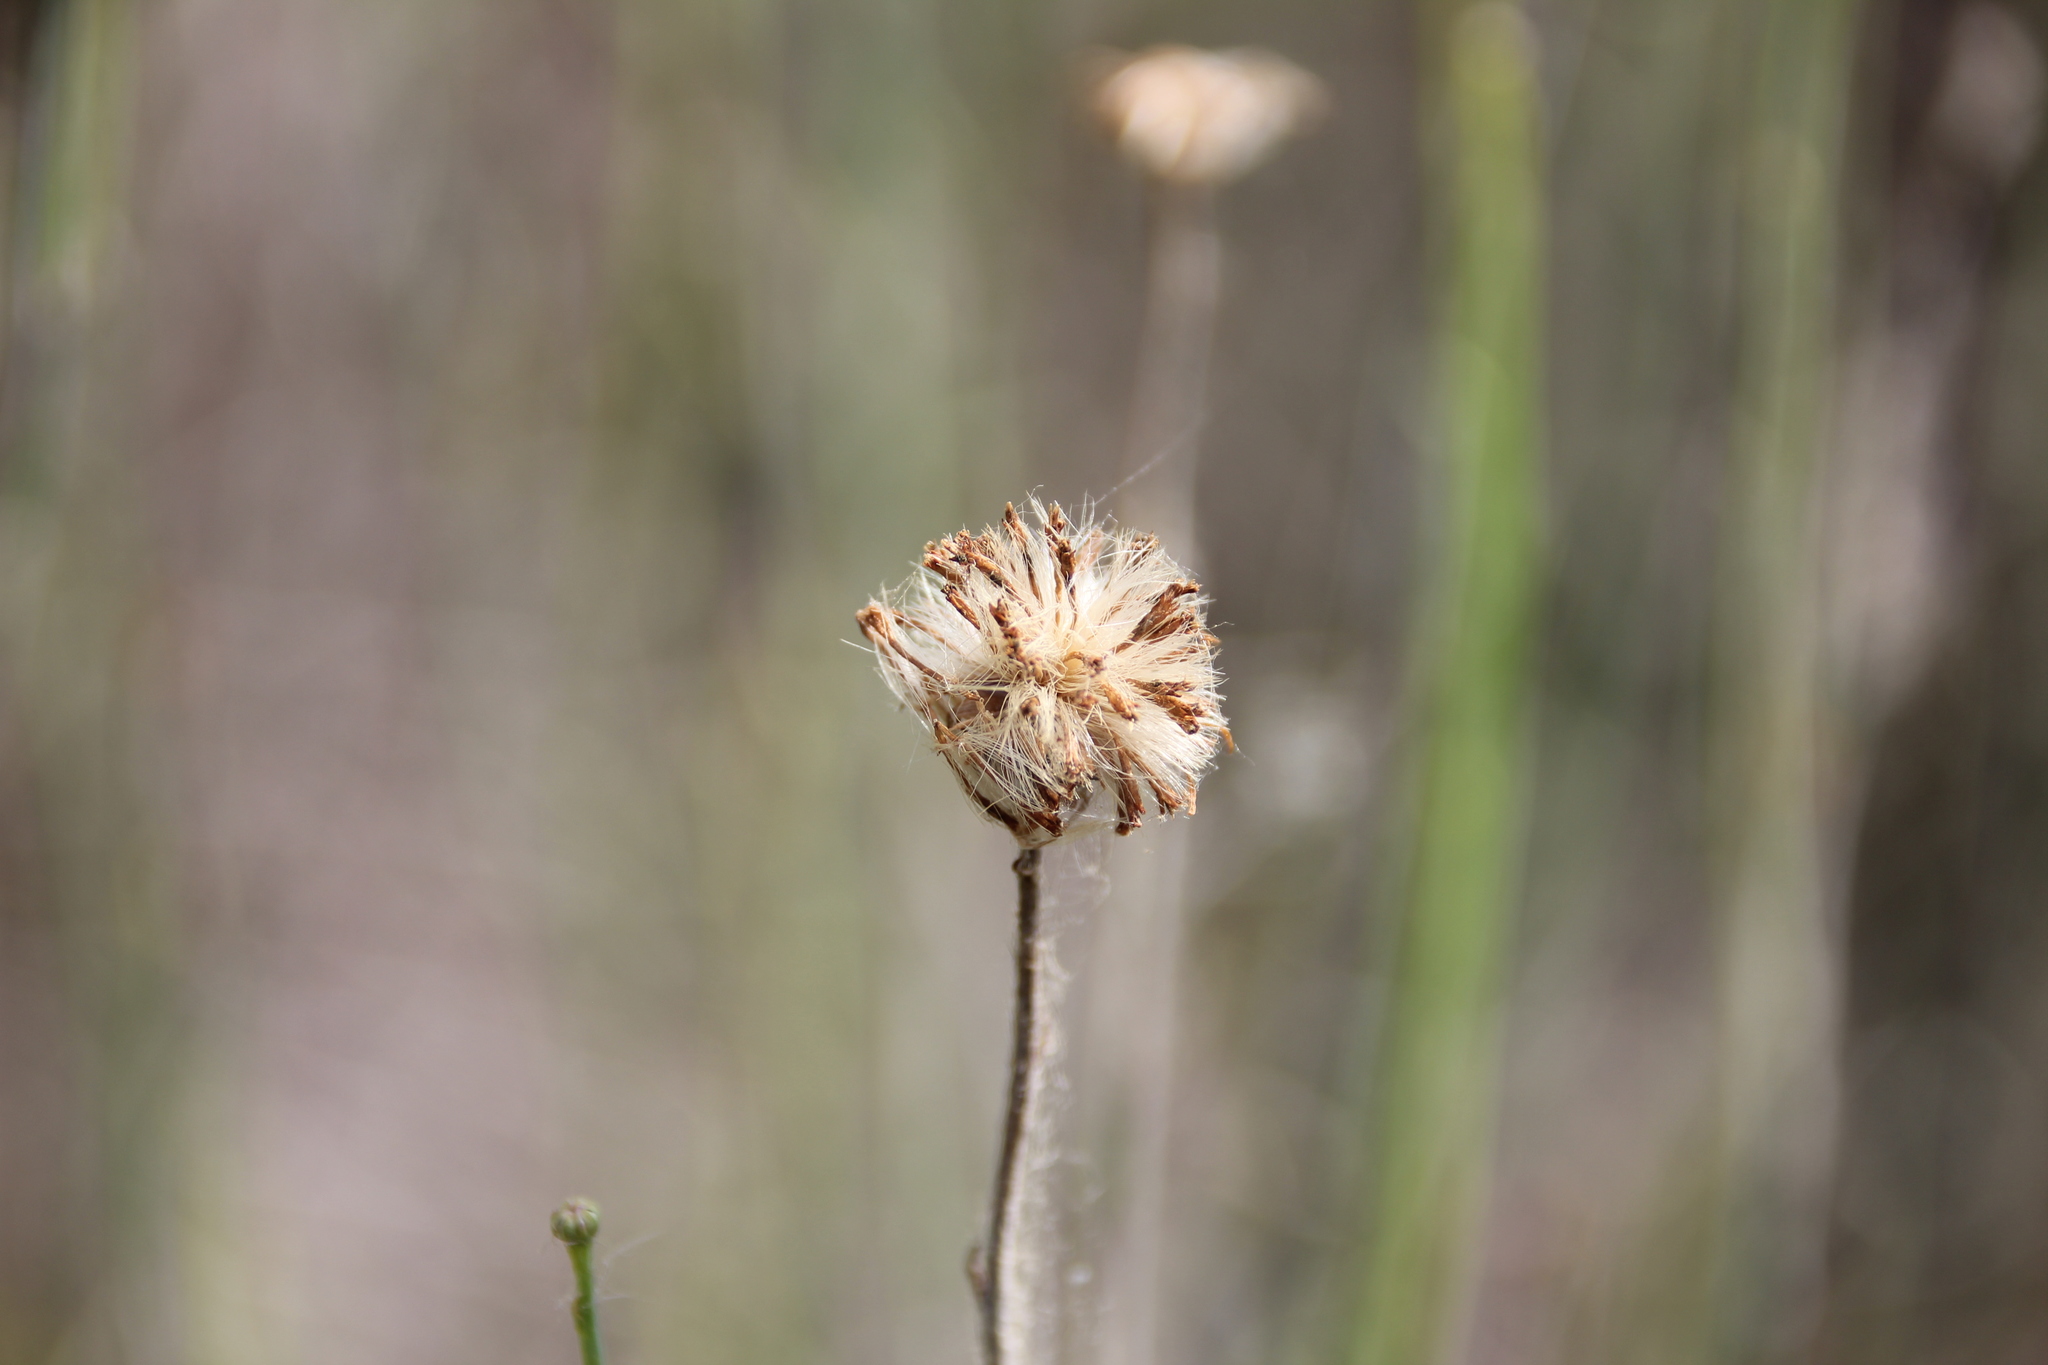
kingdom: Plantae
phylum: Tracheophyta
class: Magnoliopsida
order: Asterales
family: Asteraceae
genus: Chloracantha
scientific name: Chloracantha spinosa
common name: Mexican devilweed
